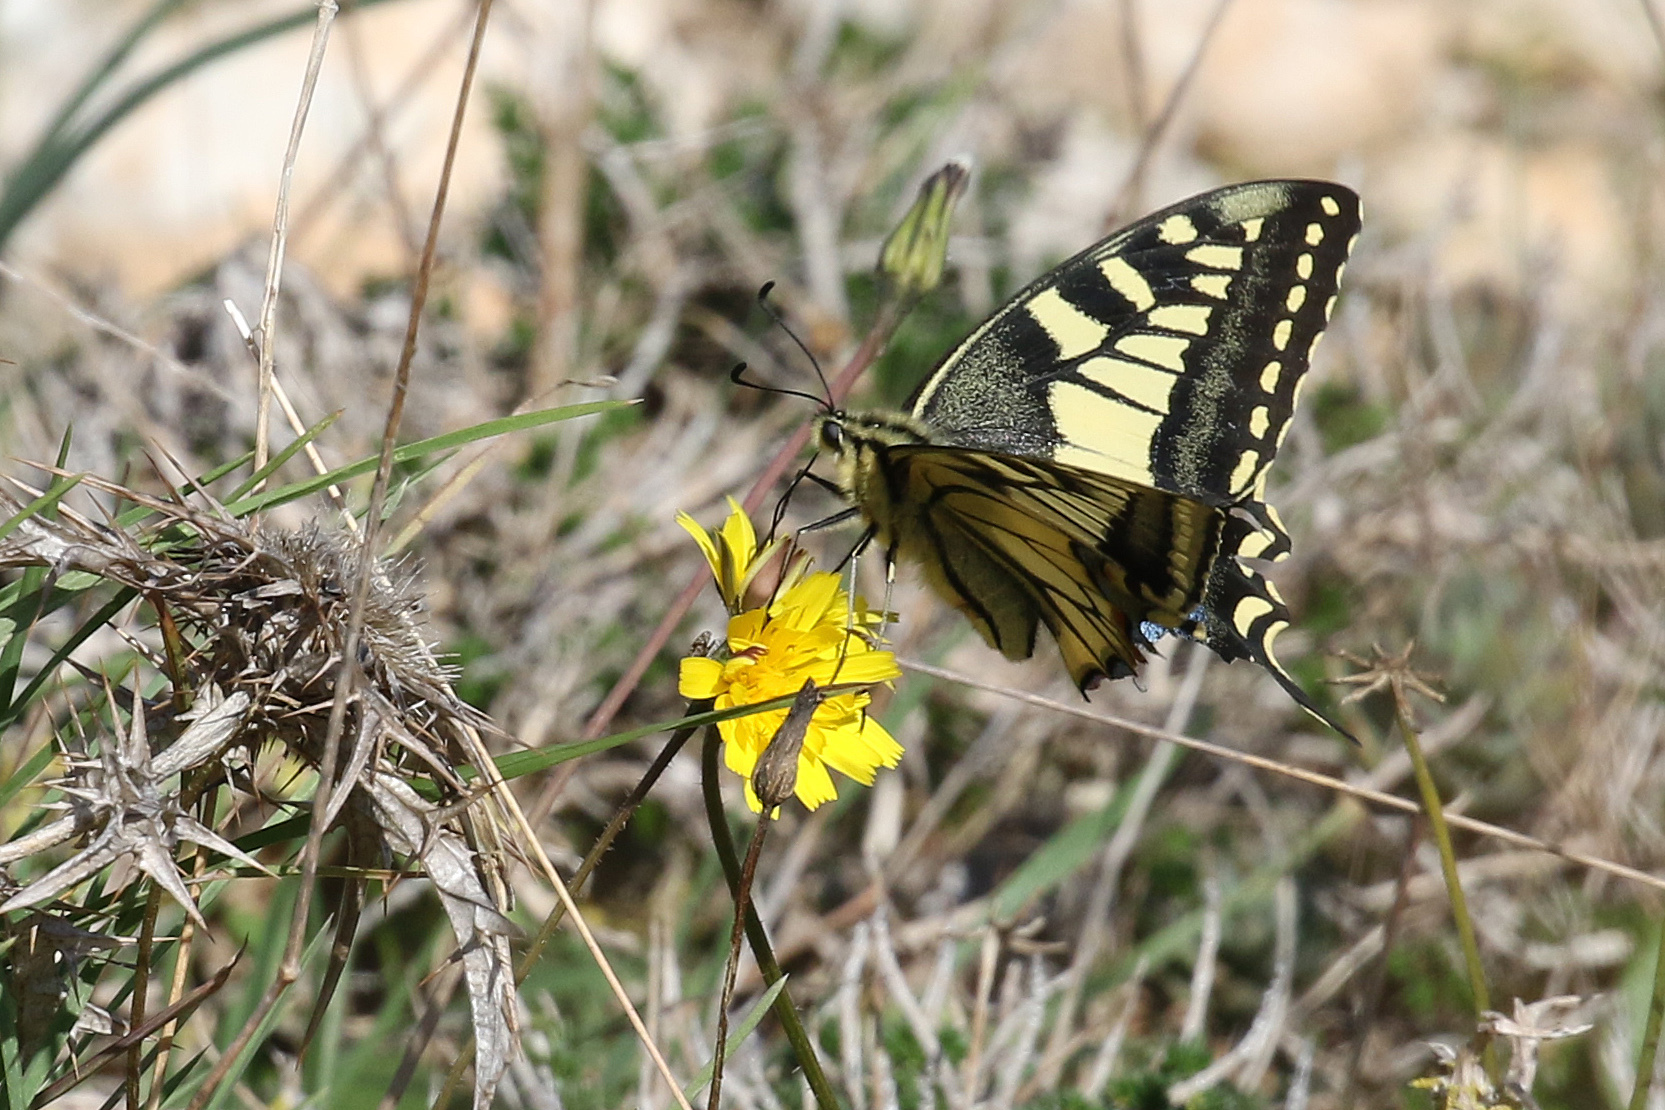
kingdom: Animalia
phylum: Arthropoda
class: Insecta
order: Lepidoptera
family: Papilionidae
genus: Papilio
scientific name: Papilio machaon
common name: Swallowtail
